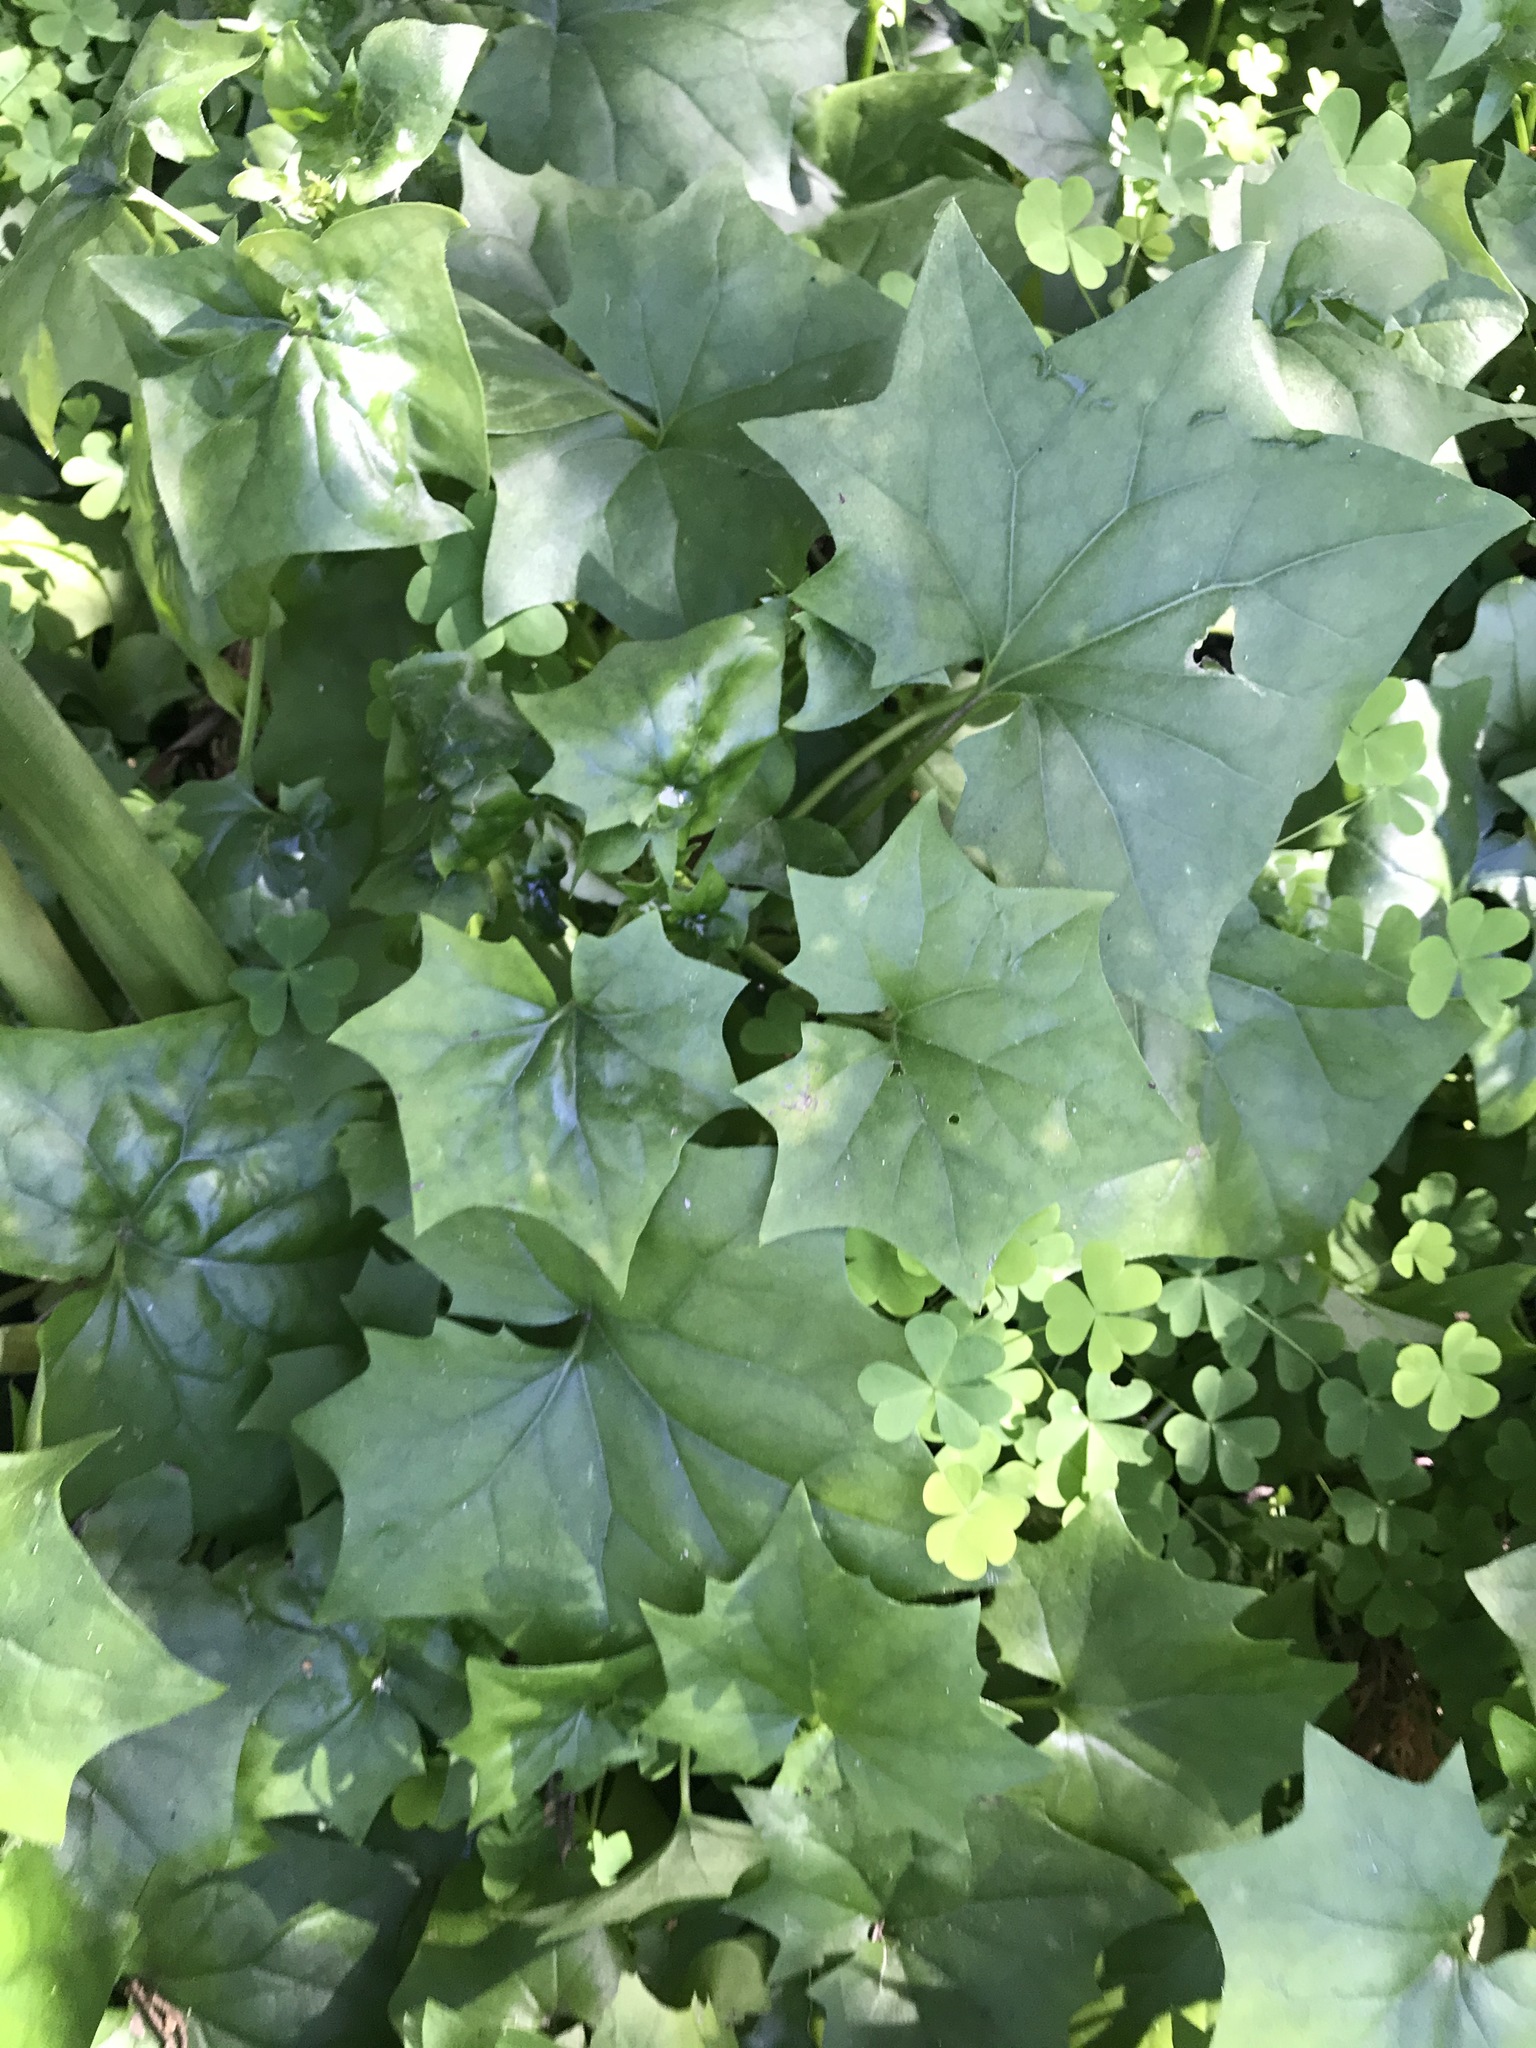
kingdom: Plantae
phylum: Tracheophyta
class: Magnoliopsida
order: Asterales
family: Asteraceae
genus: Delairea
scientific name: Delairea odorata
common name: Cape-ivy
